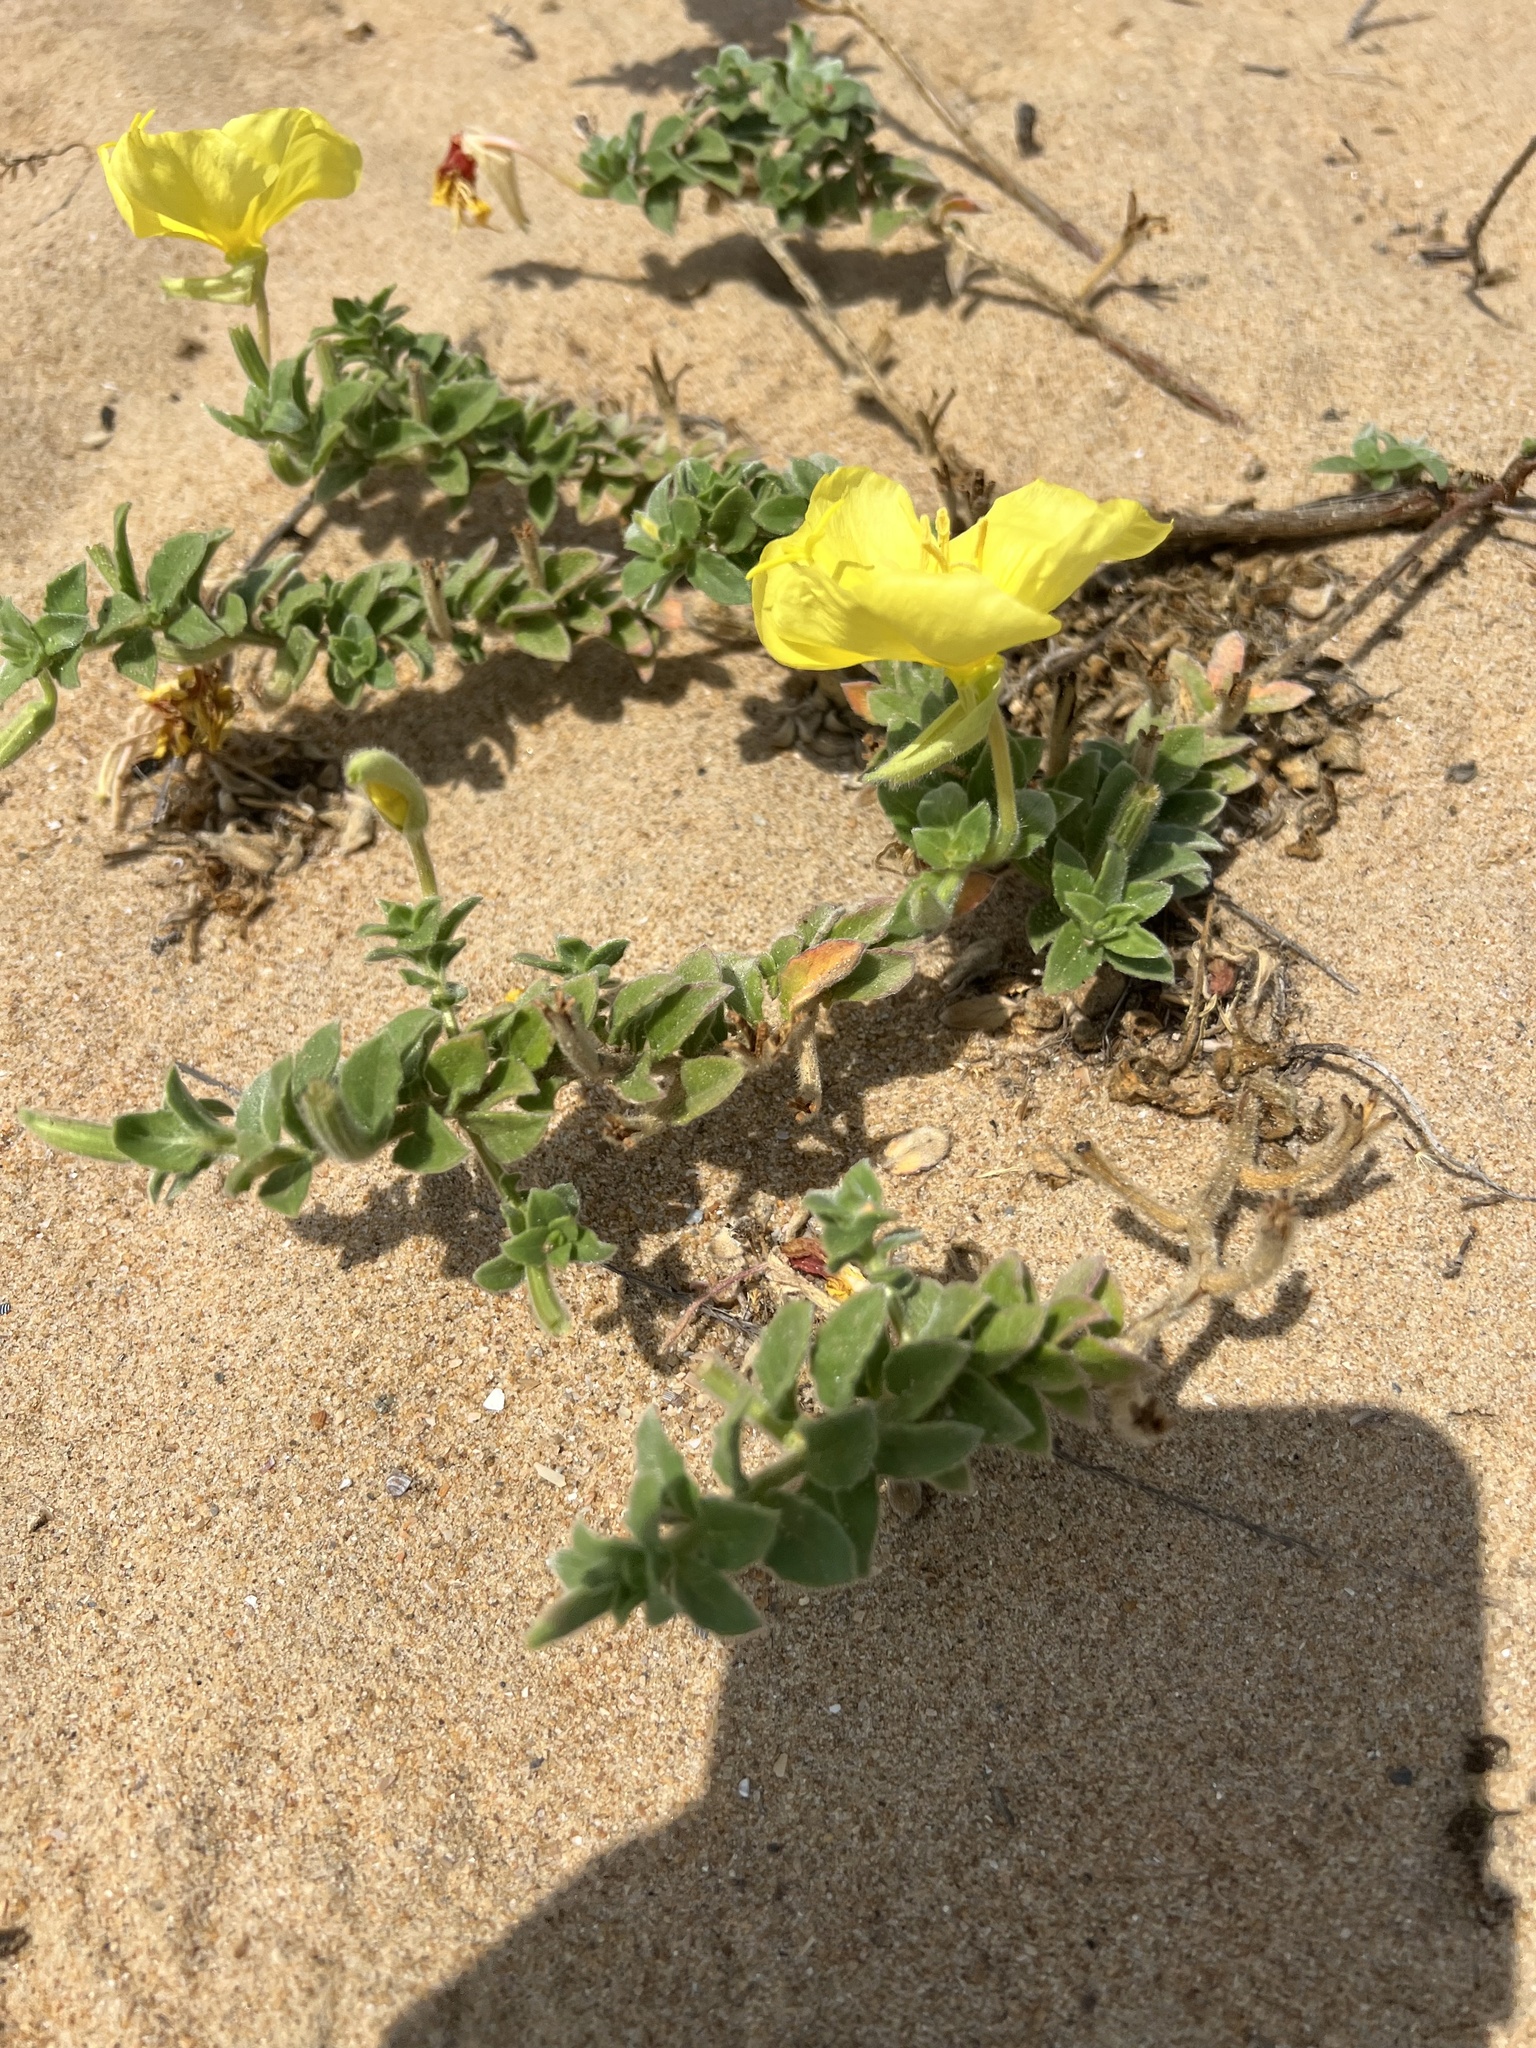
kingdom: Plantae
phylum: Tracheophyta
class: Magnoliopsida
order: Myrtales
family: Onagraceae
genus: Oenothera
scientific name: Oenothera drummondii
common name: Beach evening-primrose
